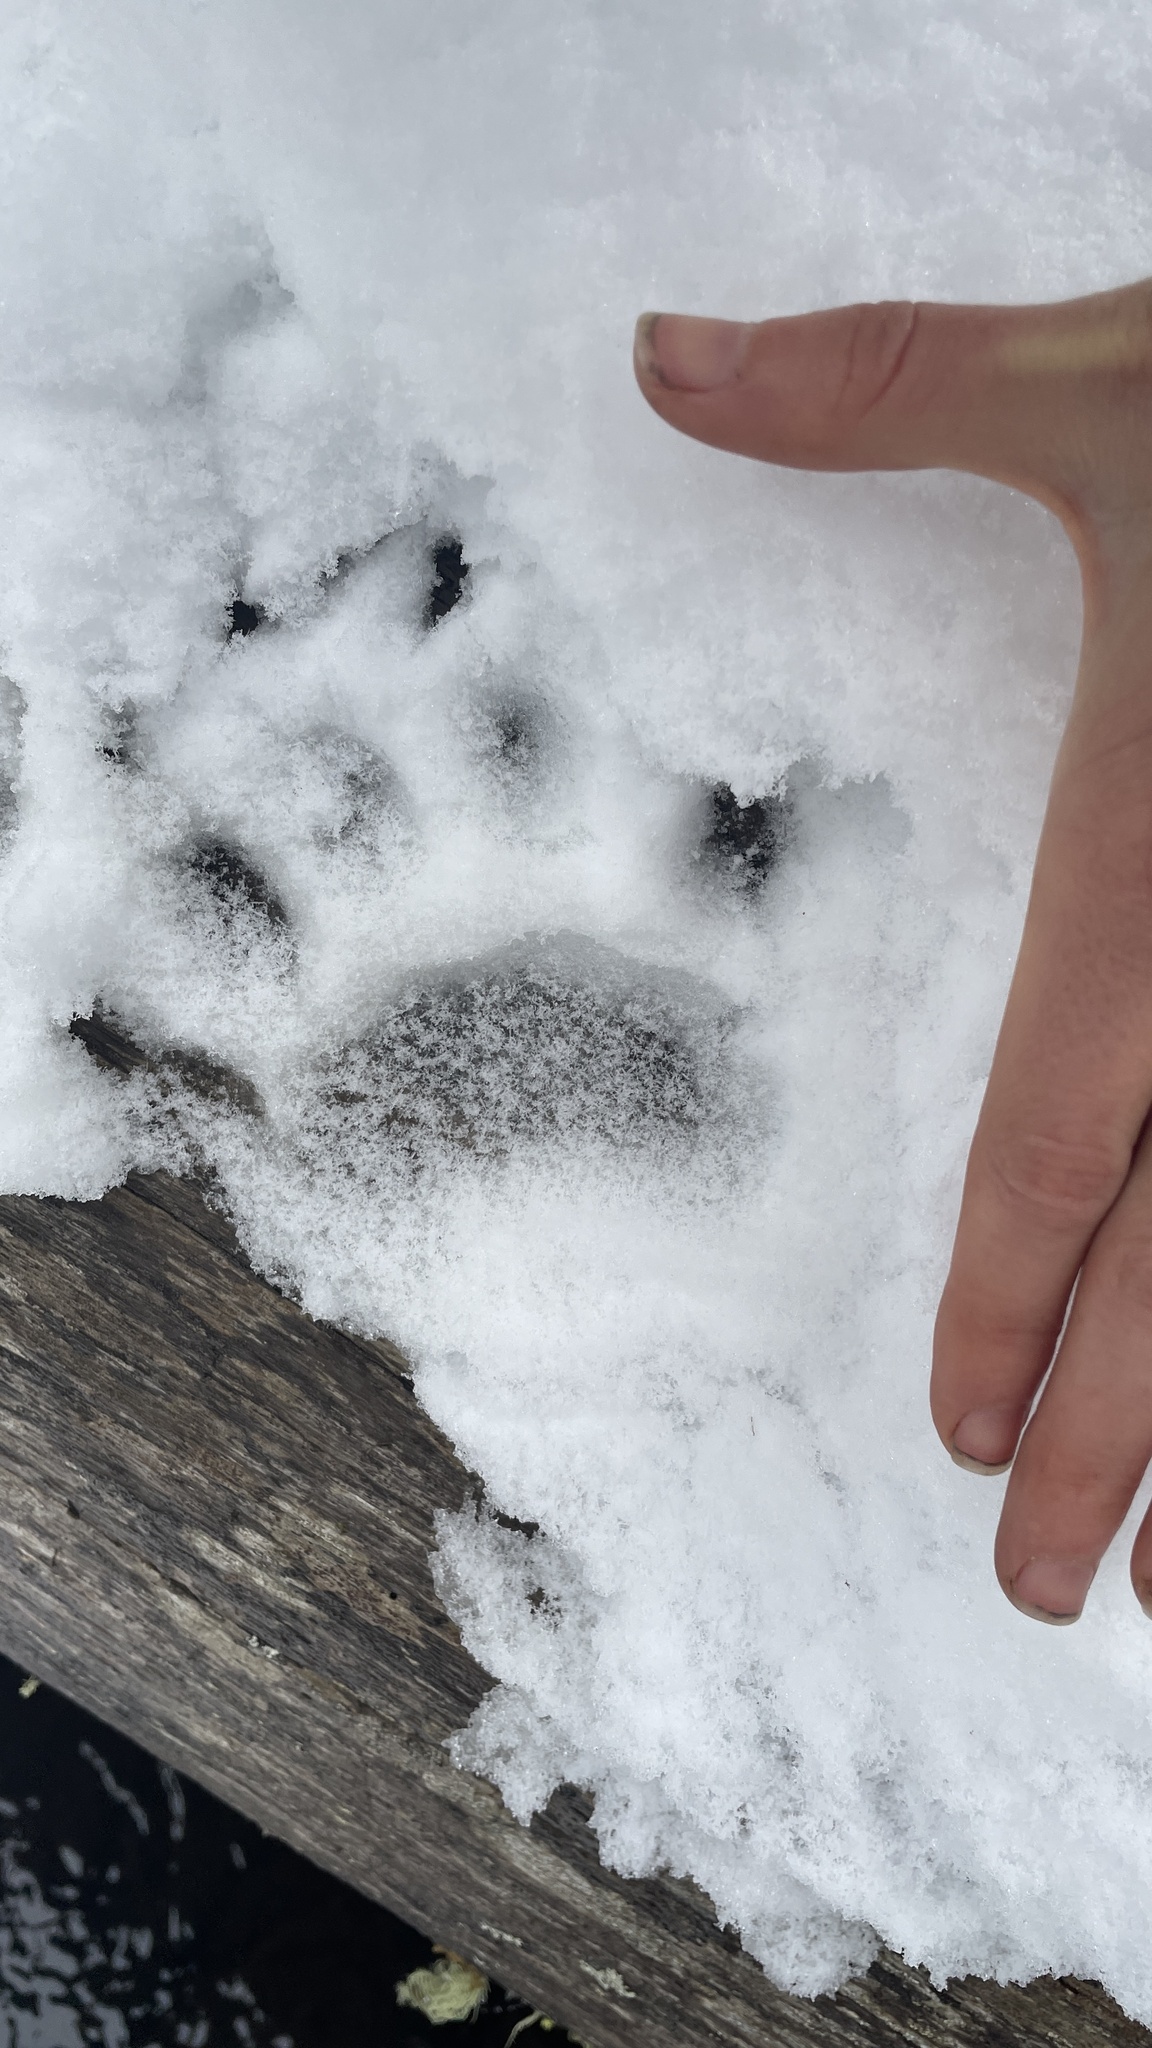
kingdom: Animalia
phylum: Chordata
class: Mammalia
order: Carnivora
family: Ursidae
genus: Ursus
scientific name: Ursus americanus
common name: American black bear
